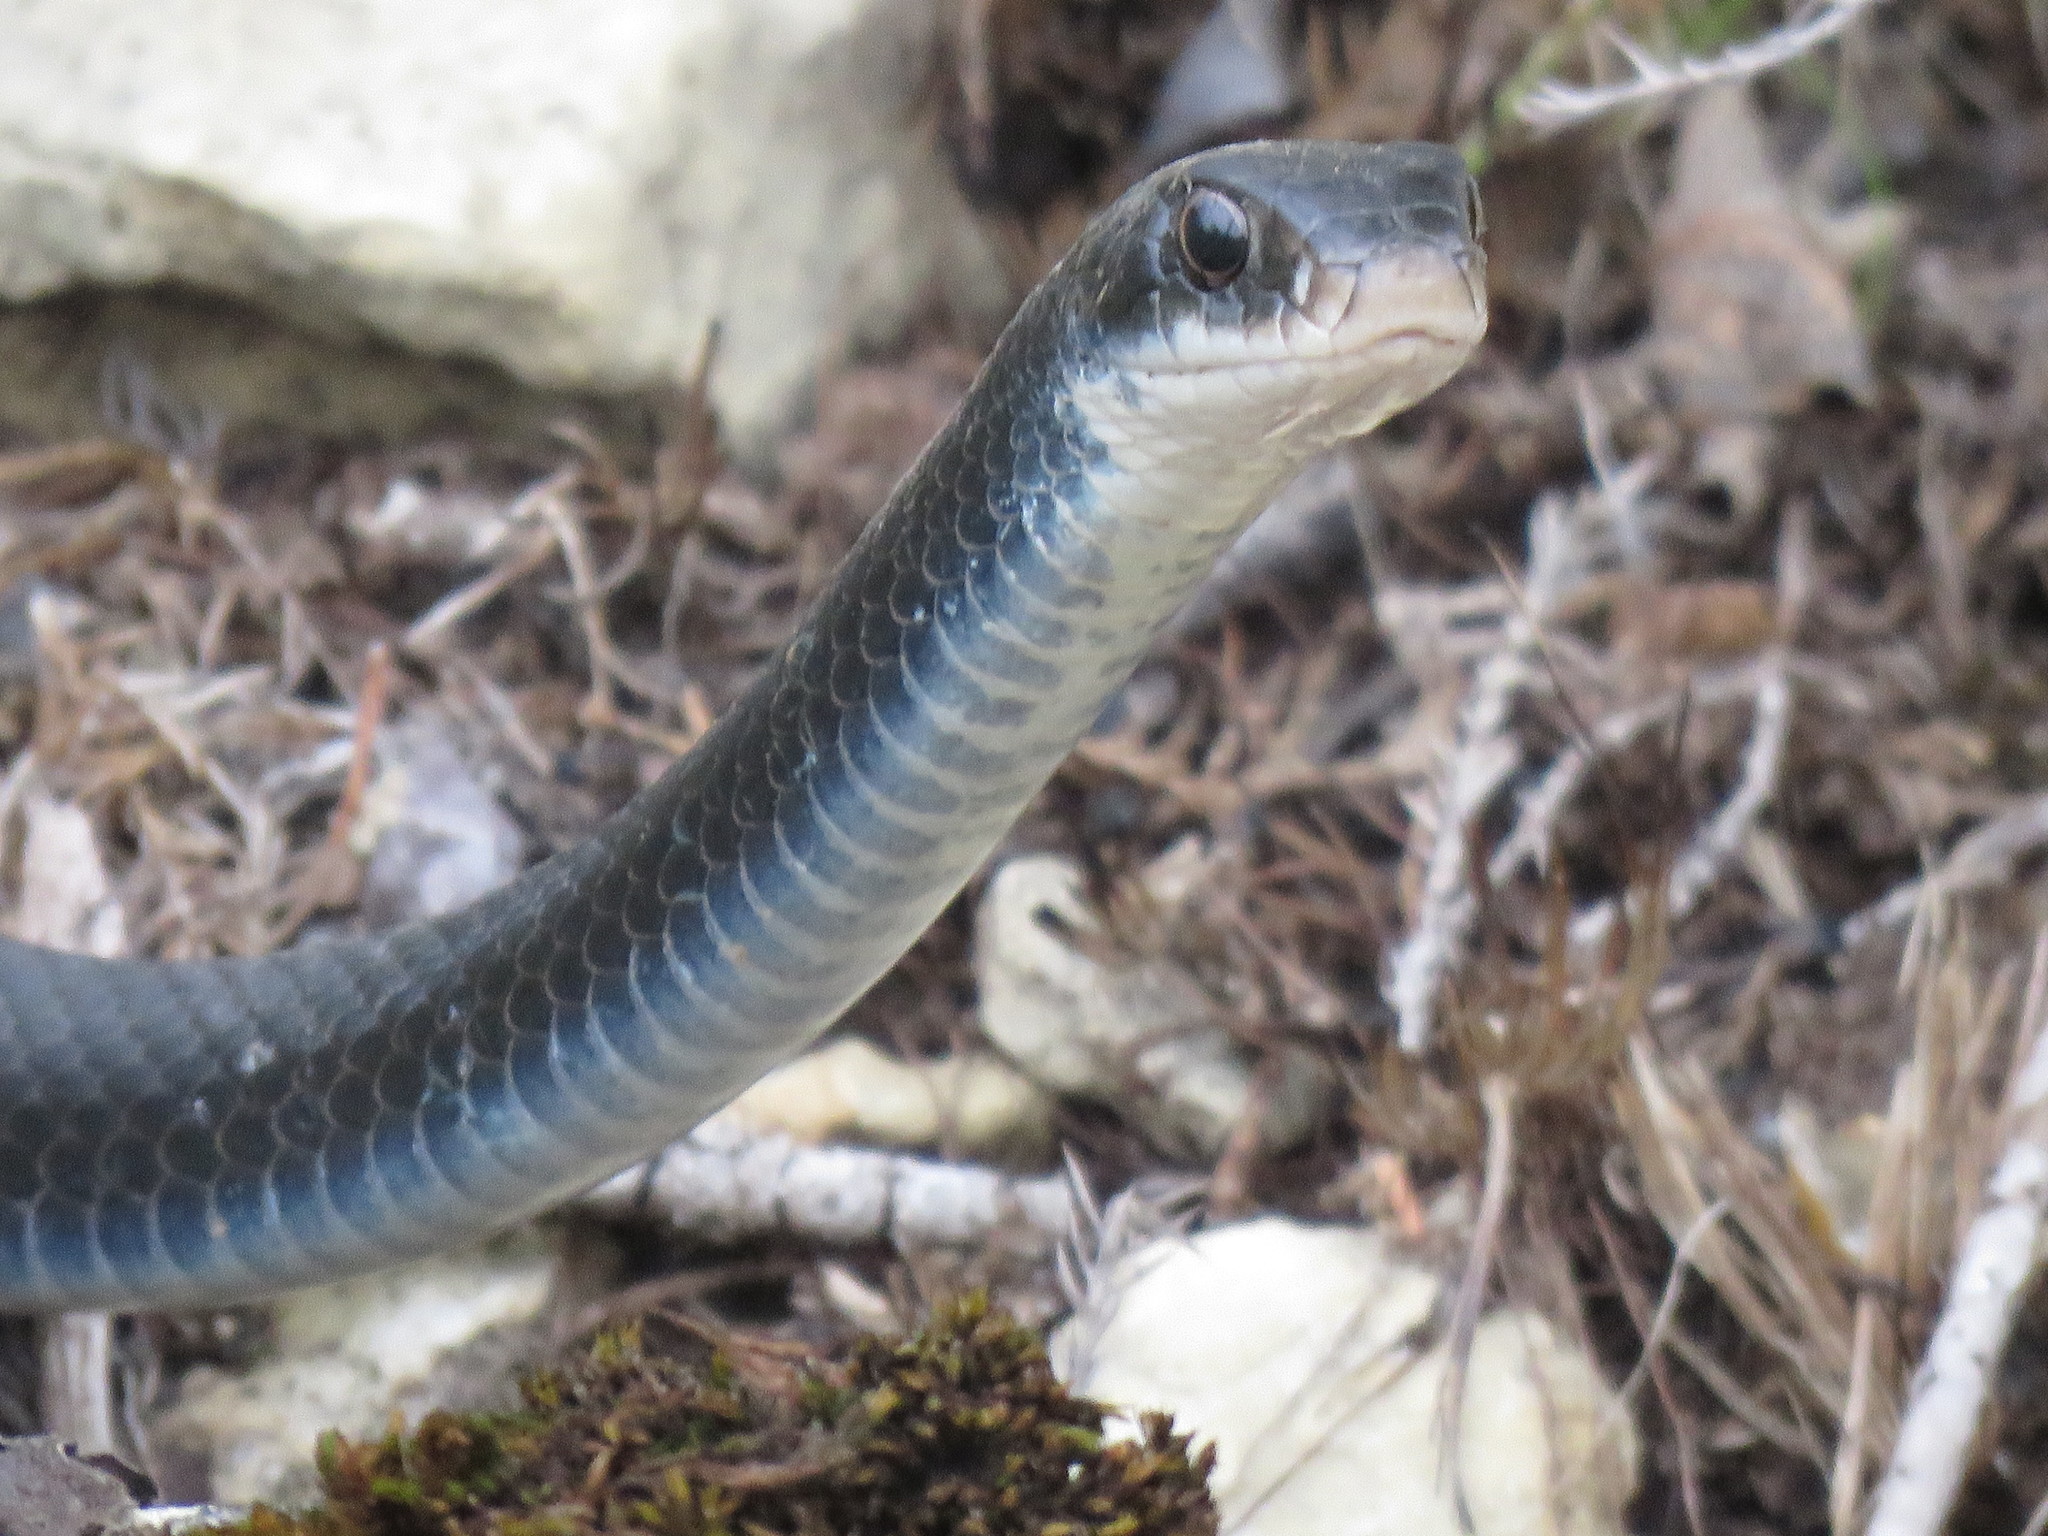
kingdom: Animalia
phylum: Chordata
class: Squamata
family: Colubridae
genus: Coluber
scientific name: Coluber constrictor
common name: Eastern racer
